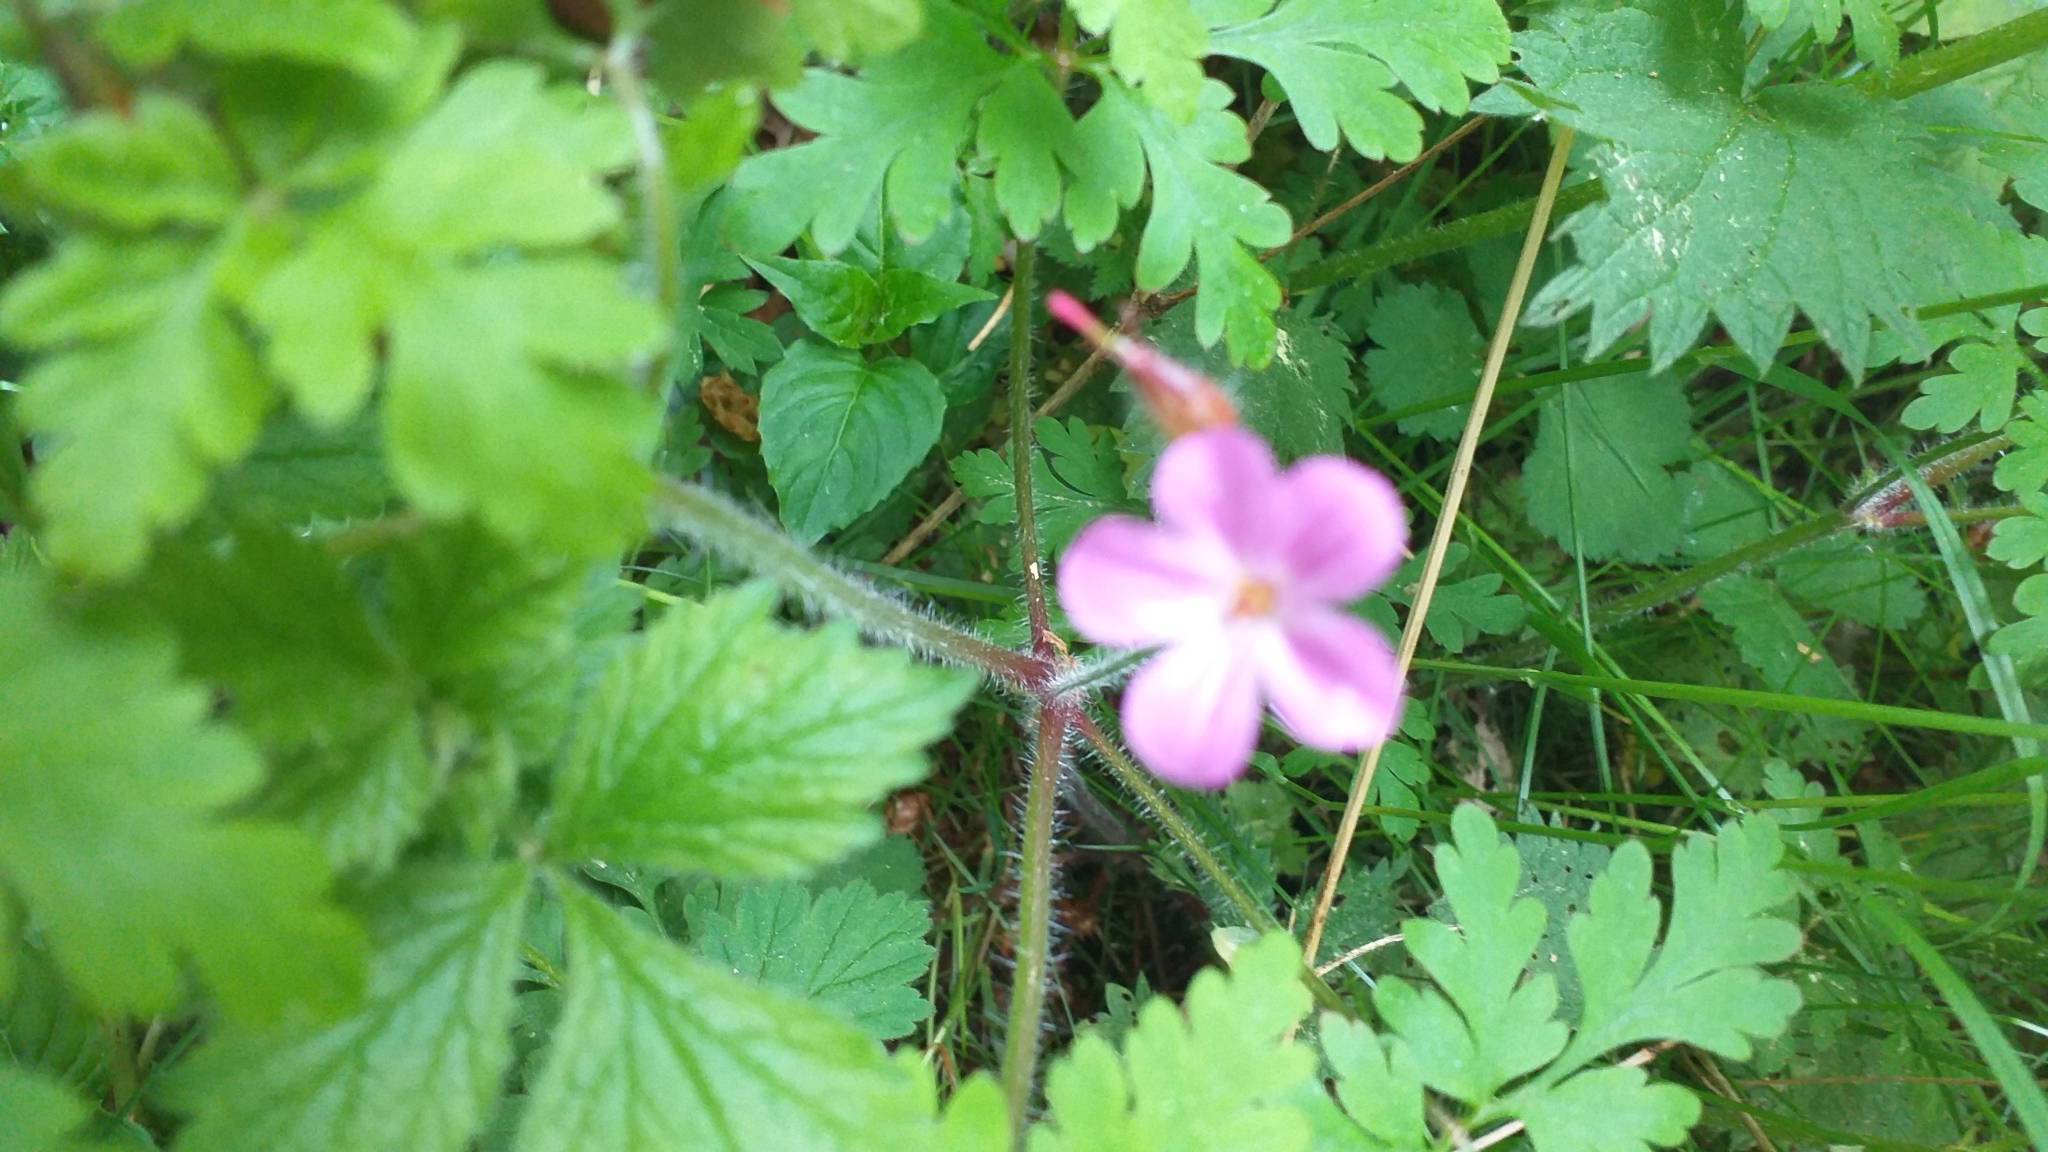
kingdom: Plantae
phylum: Tracheophyta
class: Magnoliopsida
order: Geraniales
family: Geraniaceae
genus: Geranium
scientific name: Geranium robertianum
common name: Herb-robert
